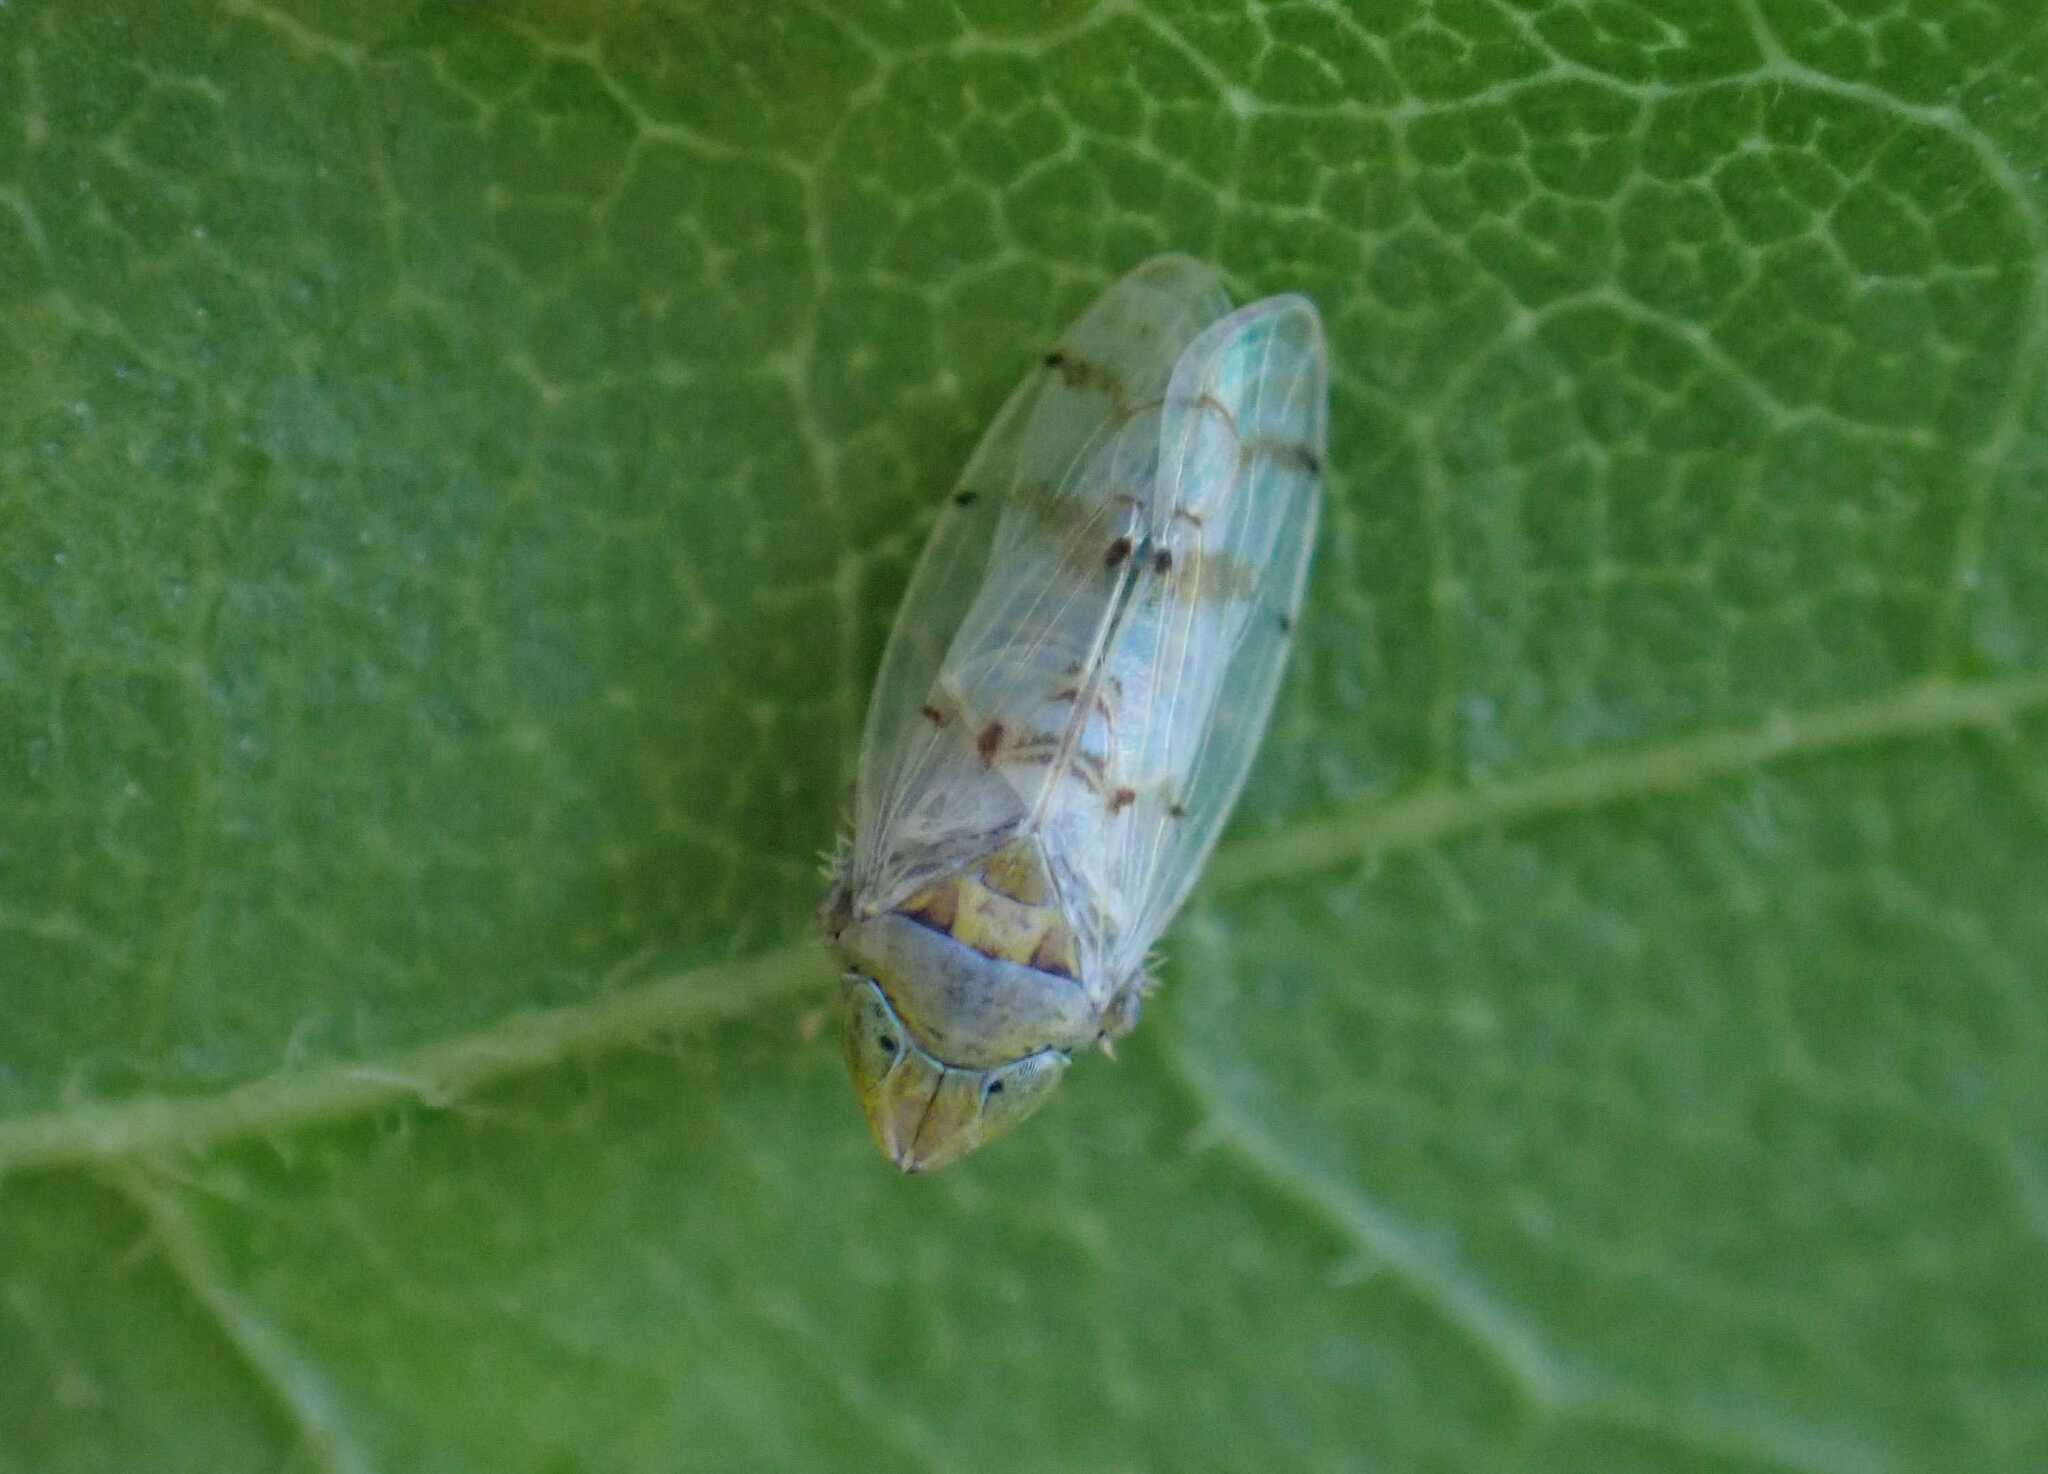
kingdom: Animalia
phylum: Arthropoda
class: Insecta
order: Hemiptera
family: Cicadellidae
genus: Japananus
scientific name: Japananus hyalinus
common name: The japanese maple leafhopper
